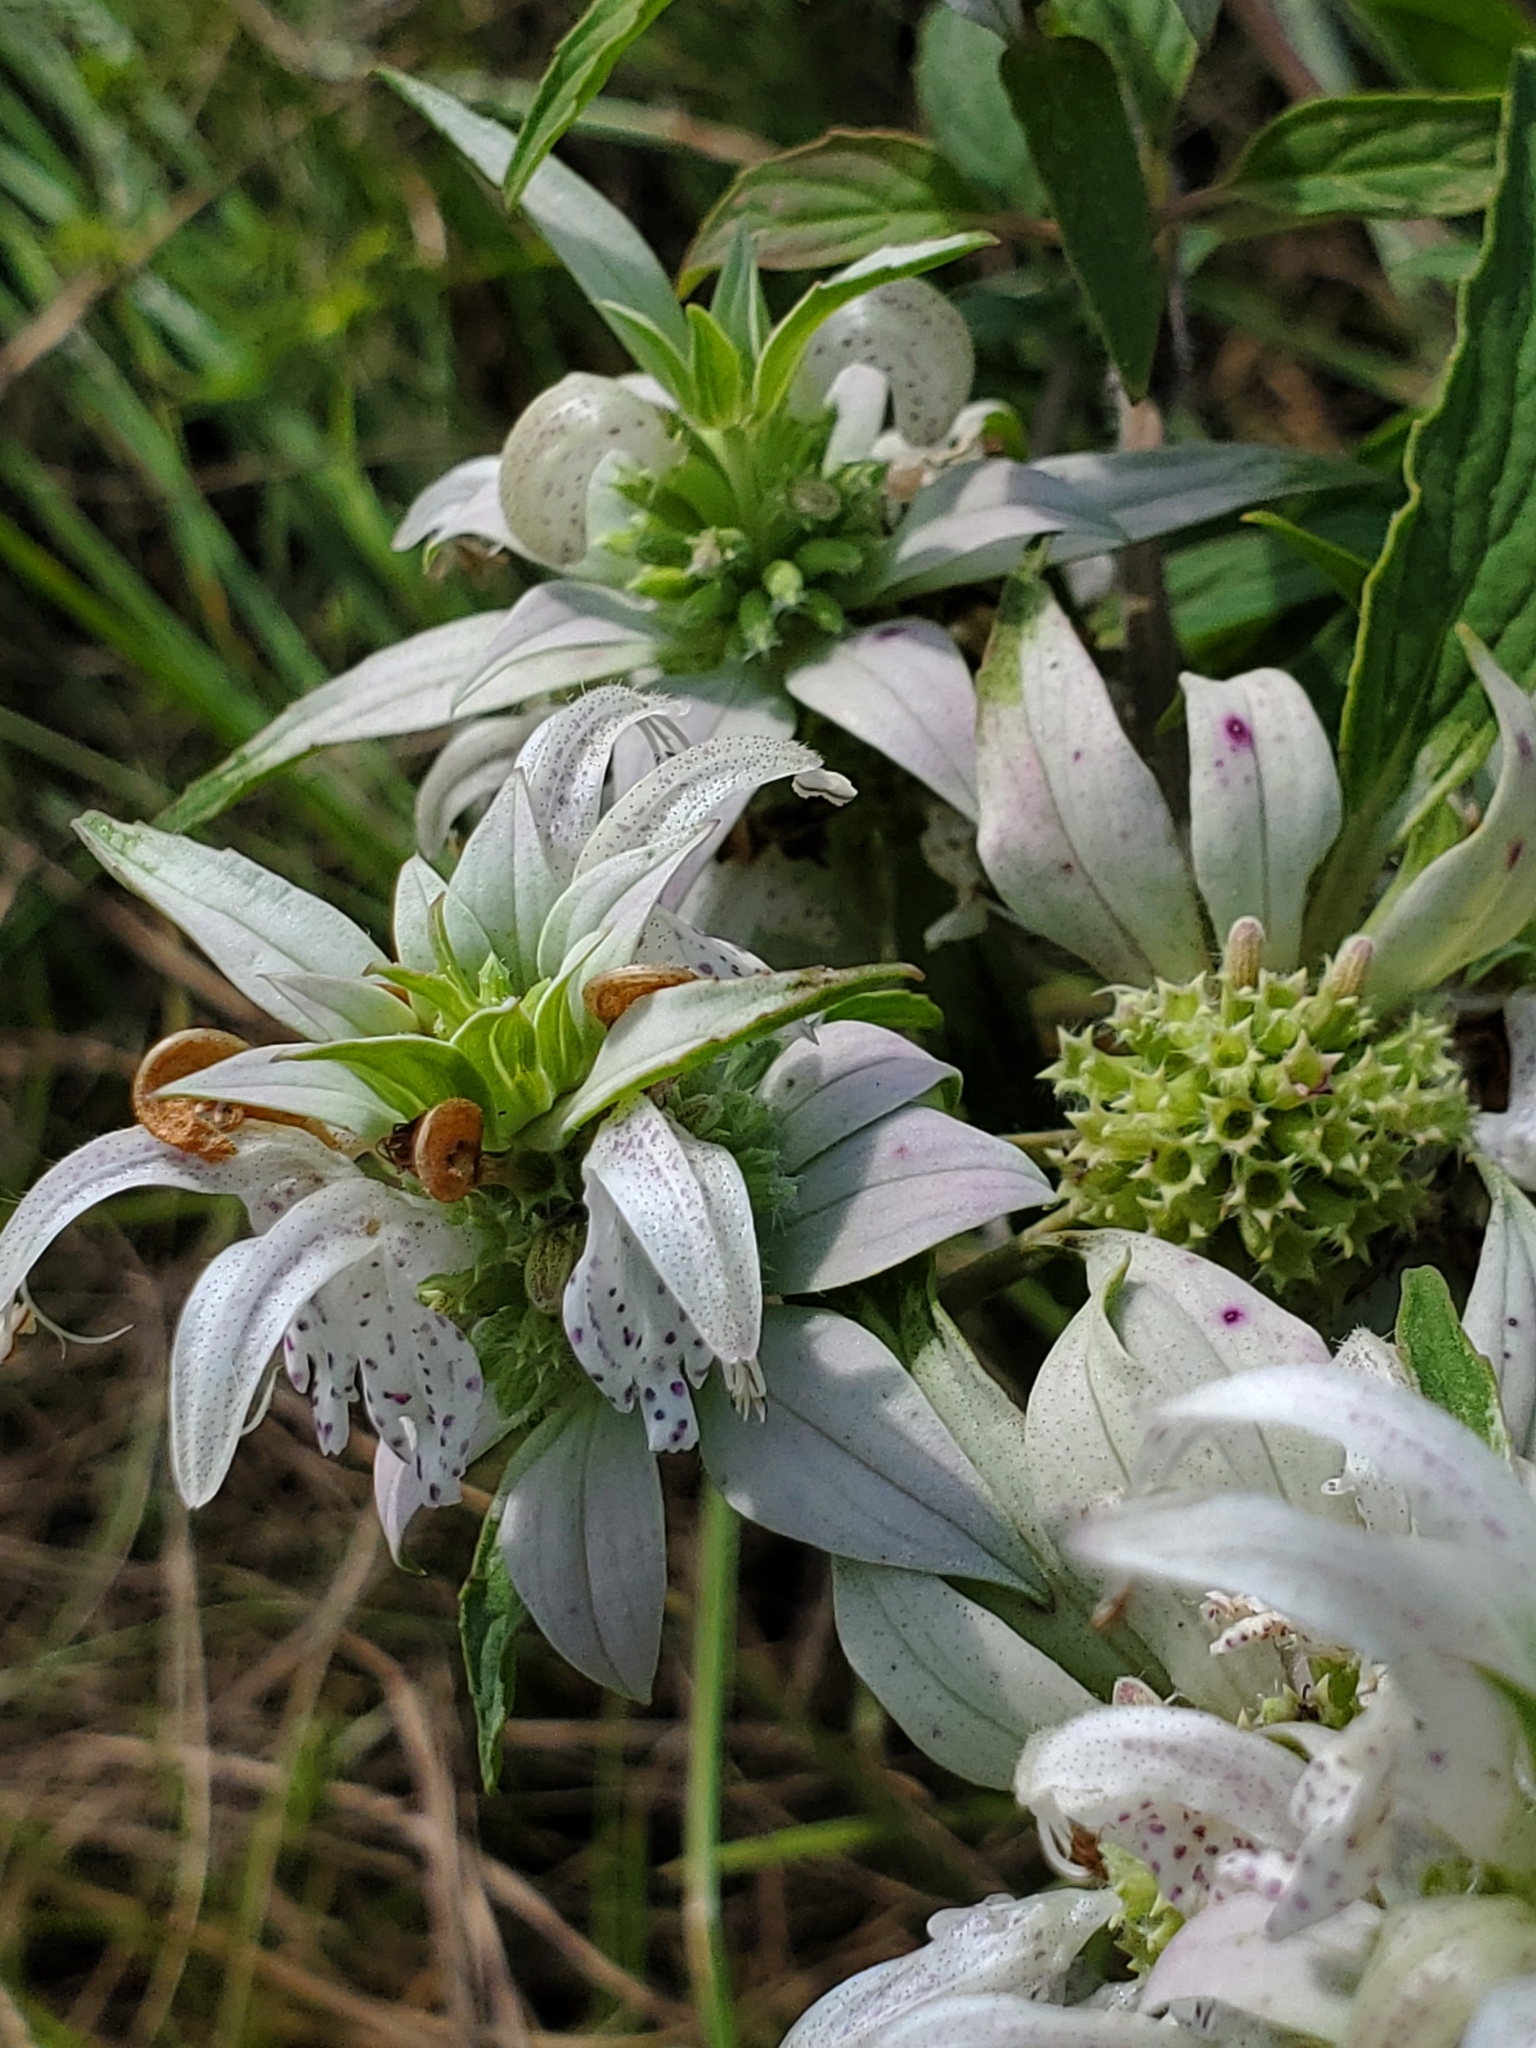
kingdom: Plantae
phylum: Tracheophyta
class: Magnoliopsida
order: Lamiales
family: Lamiaceae
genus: Monarda
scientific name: Monarda punctata
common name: Dotted monarda
